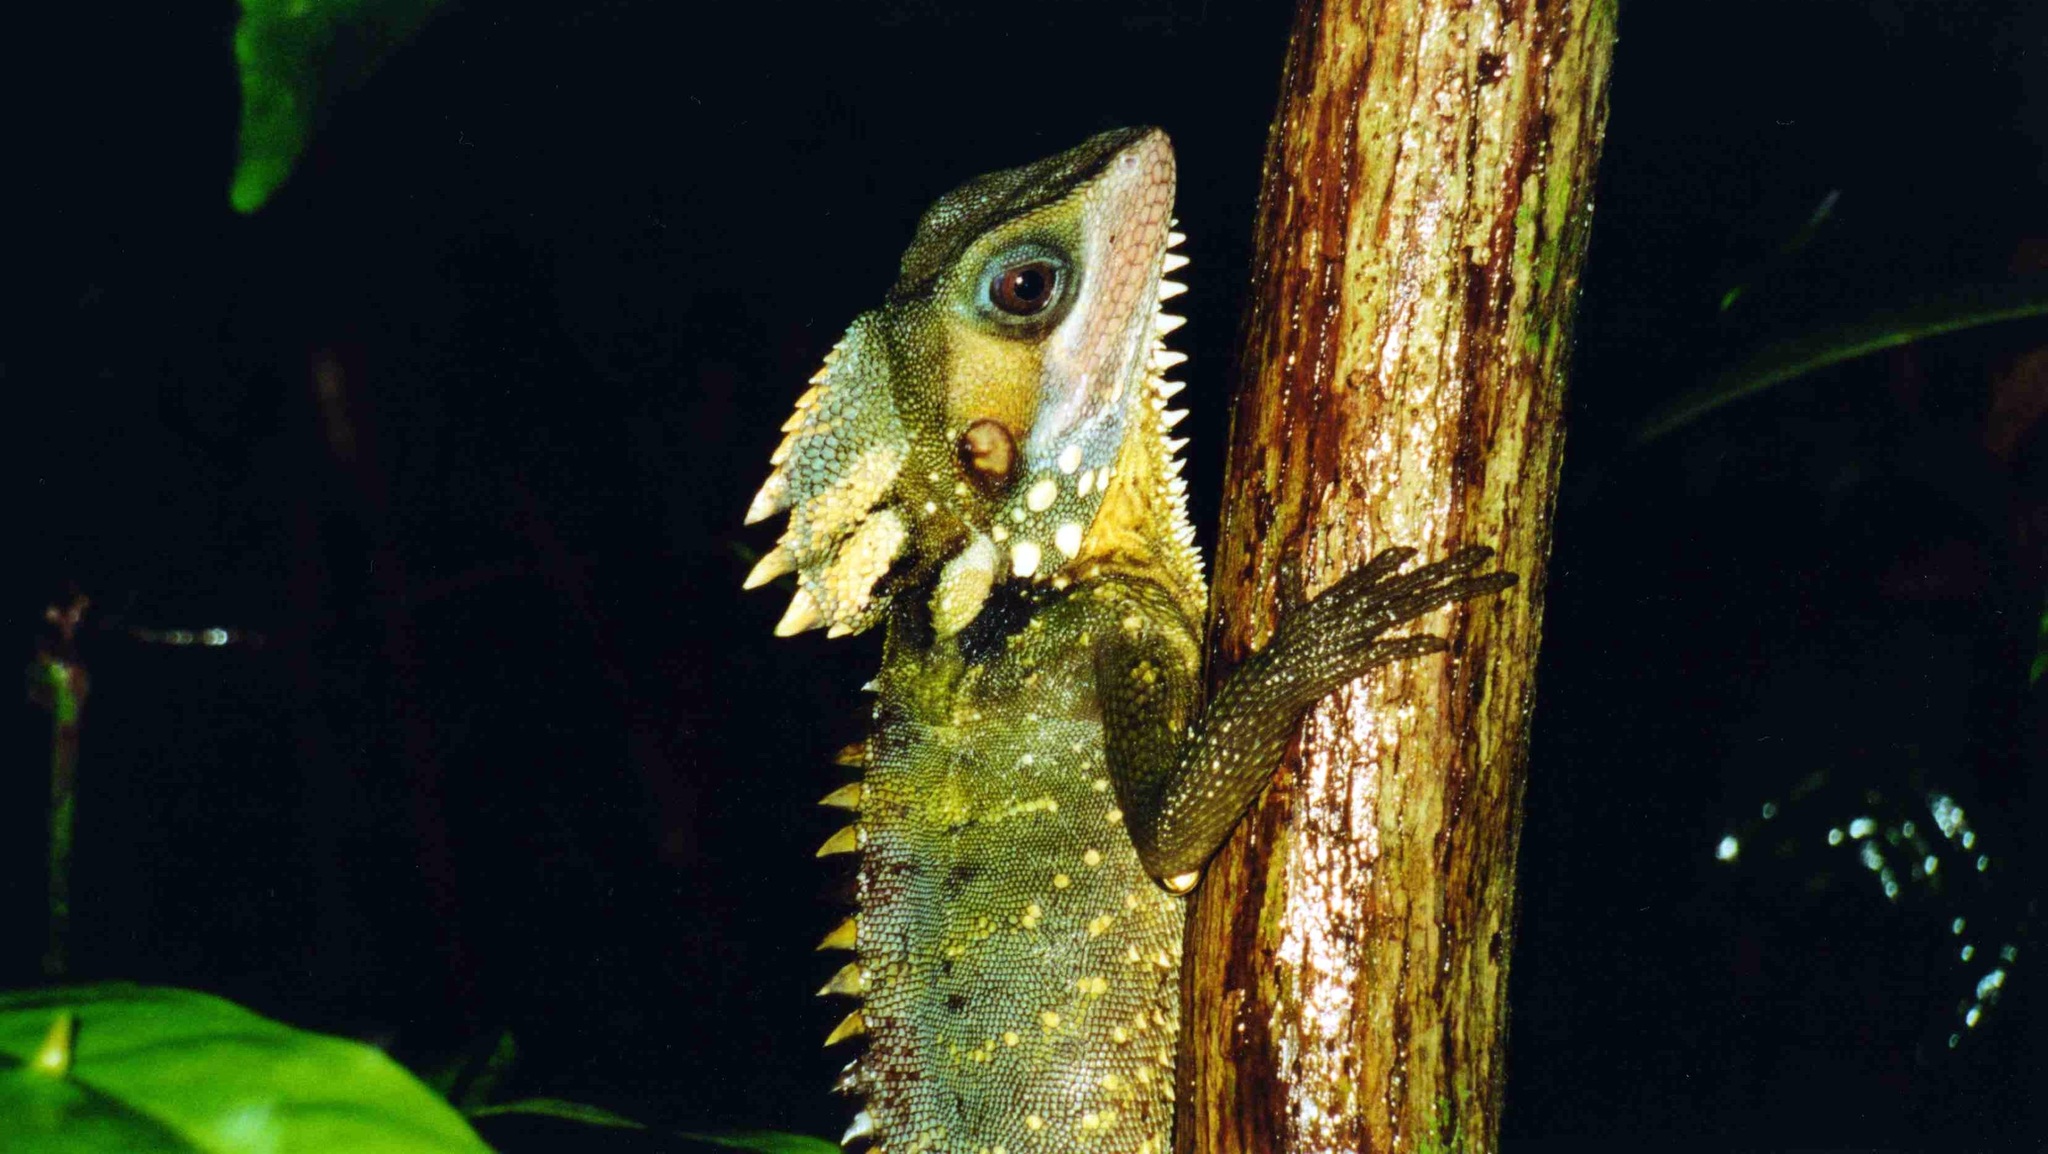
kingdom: Animalia
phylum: Chordata
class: Squamata
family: Agamidae
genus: Lophosaurus
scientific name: Lophosaurus boydii
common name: Boyd's forest dragon
